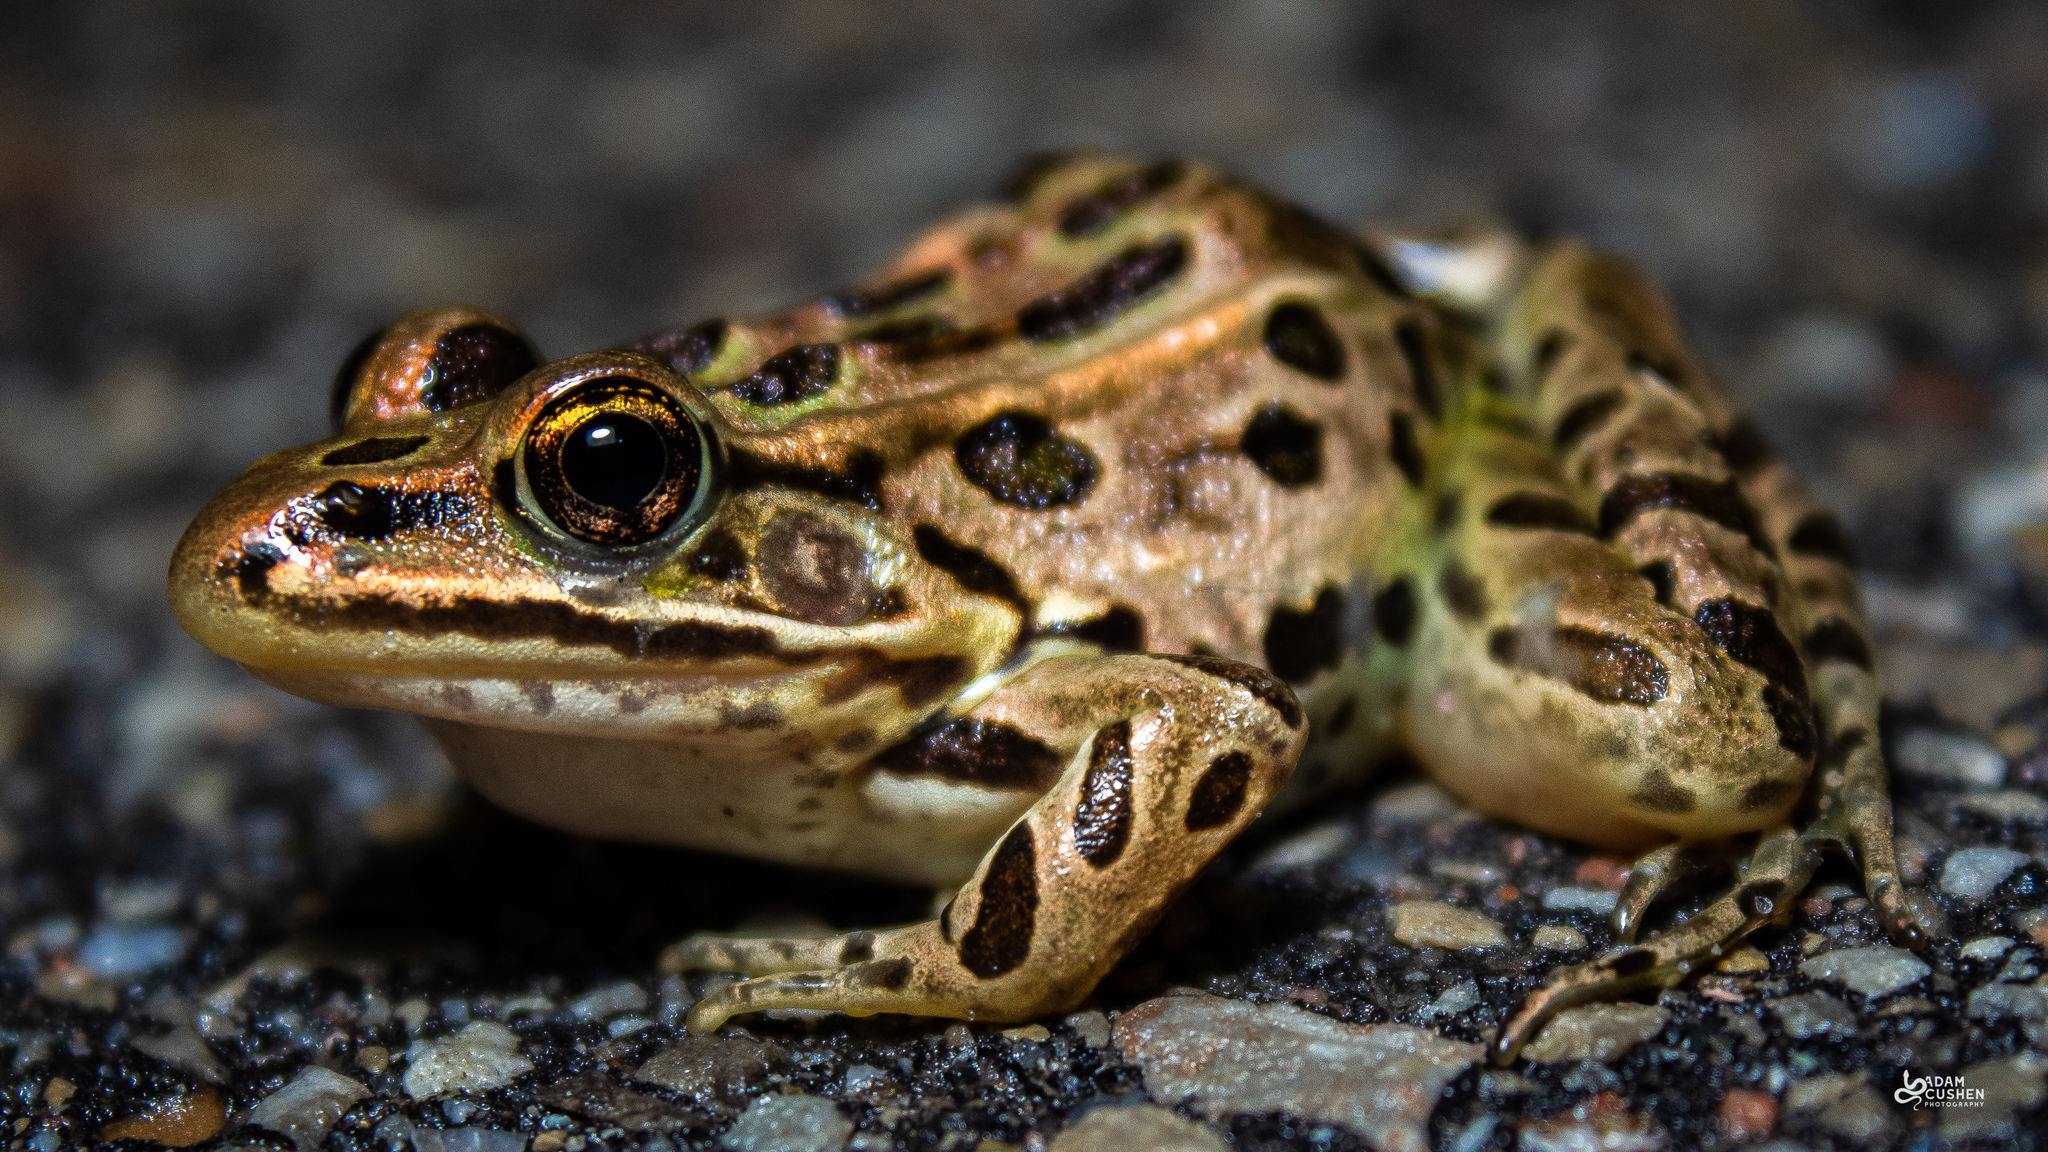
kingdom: Animalia
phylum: Chordata
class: Amphibia
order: Anura
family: Ranidae
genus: Lithobates
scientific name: Lithobates pipiens
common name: Northern leopard frog
